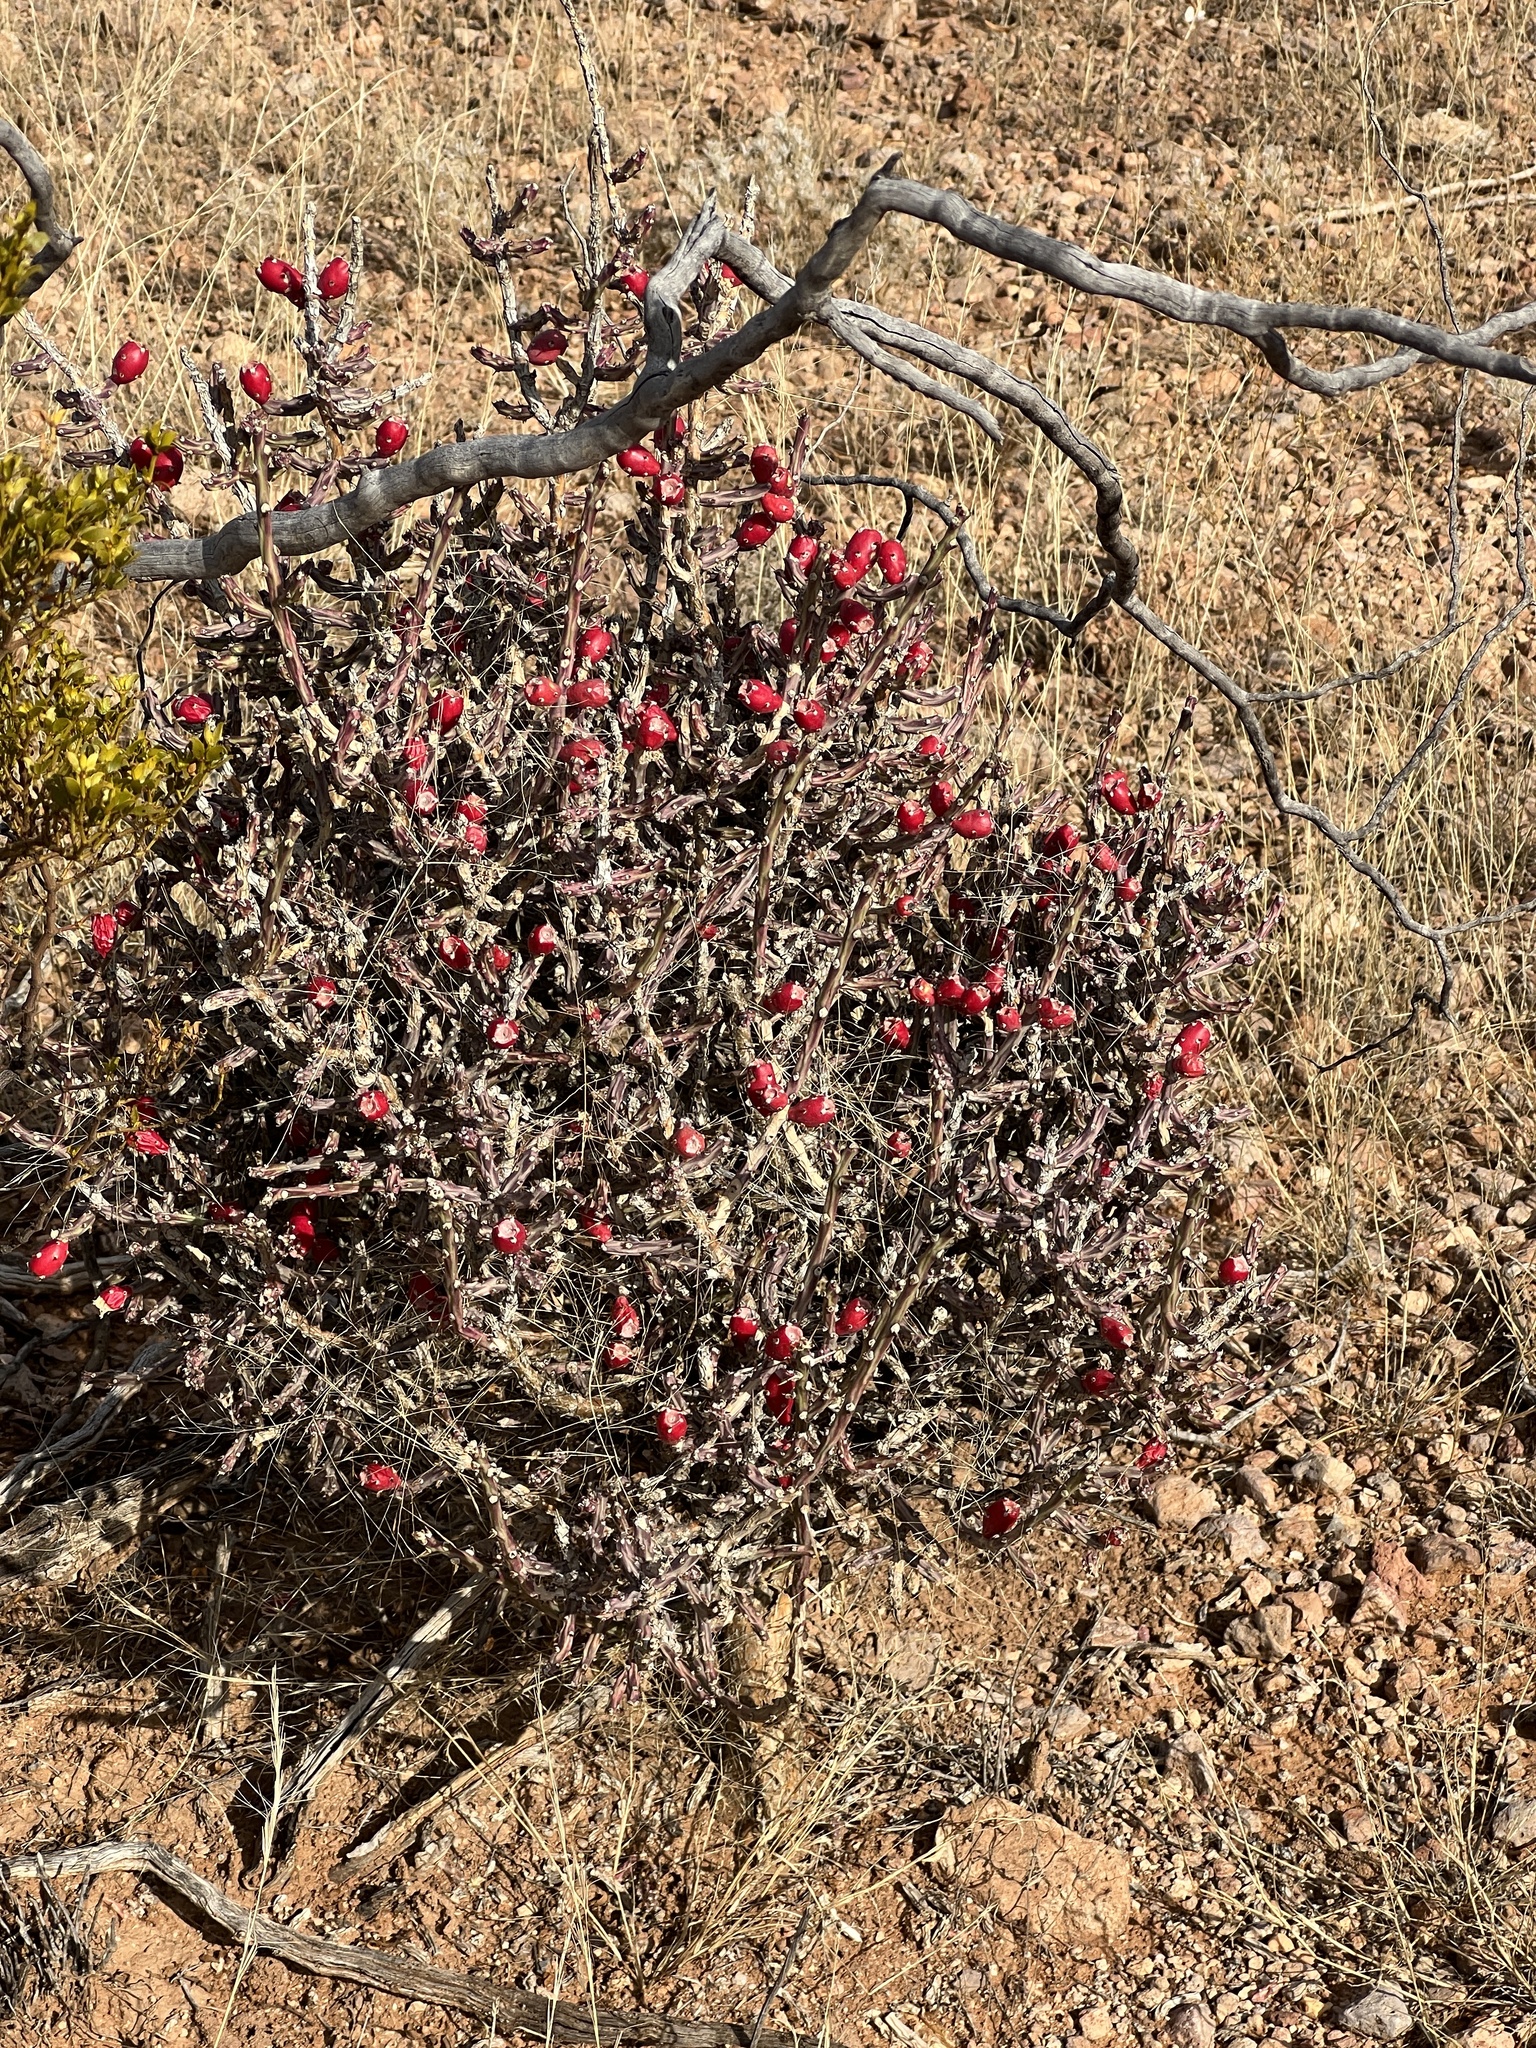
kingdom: Plantae
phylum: Tracheophyta
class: Magnoliopsida
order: Caryophyllales
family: Cactaceae
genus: Cylindropuntia
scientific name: Cylindropuntia leptocaulis
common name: Christmas cactus
